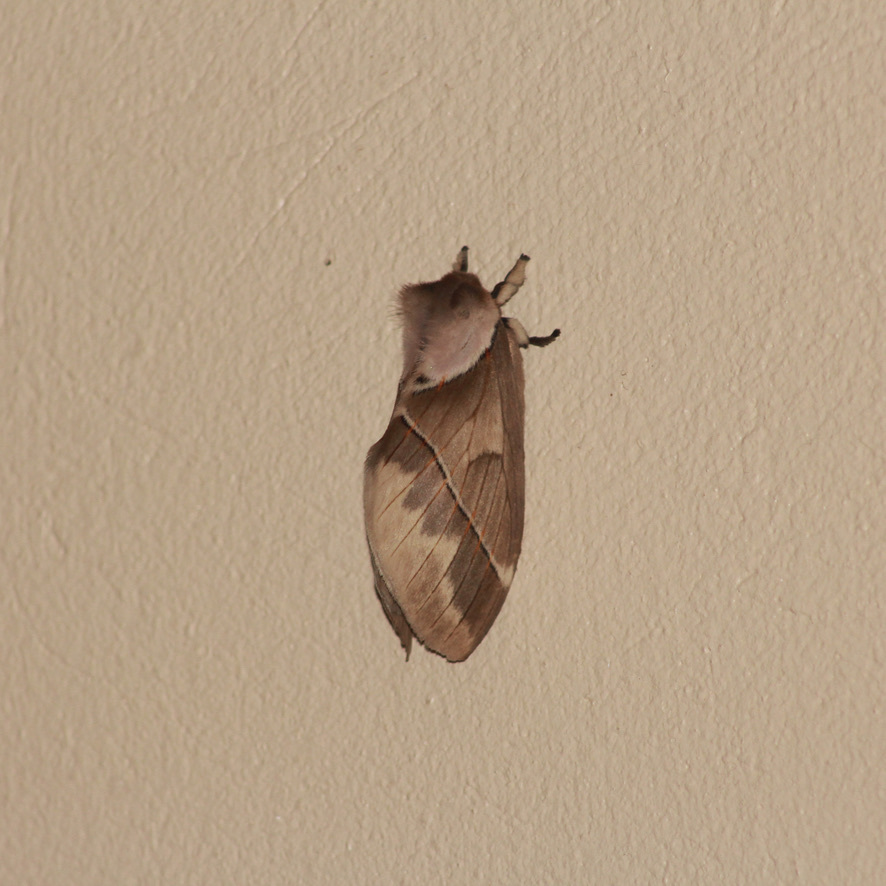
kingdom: Animalia
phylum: Arthropoda
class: Insecta
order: Lepidoptera
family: Saturniidae
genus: Pseudodirphia
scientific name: Pseudodirphia eumedide
